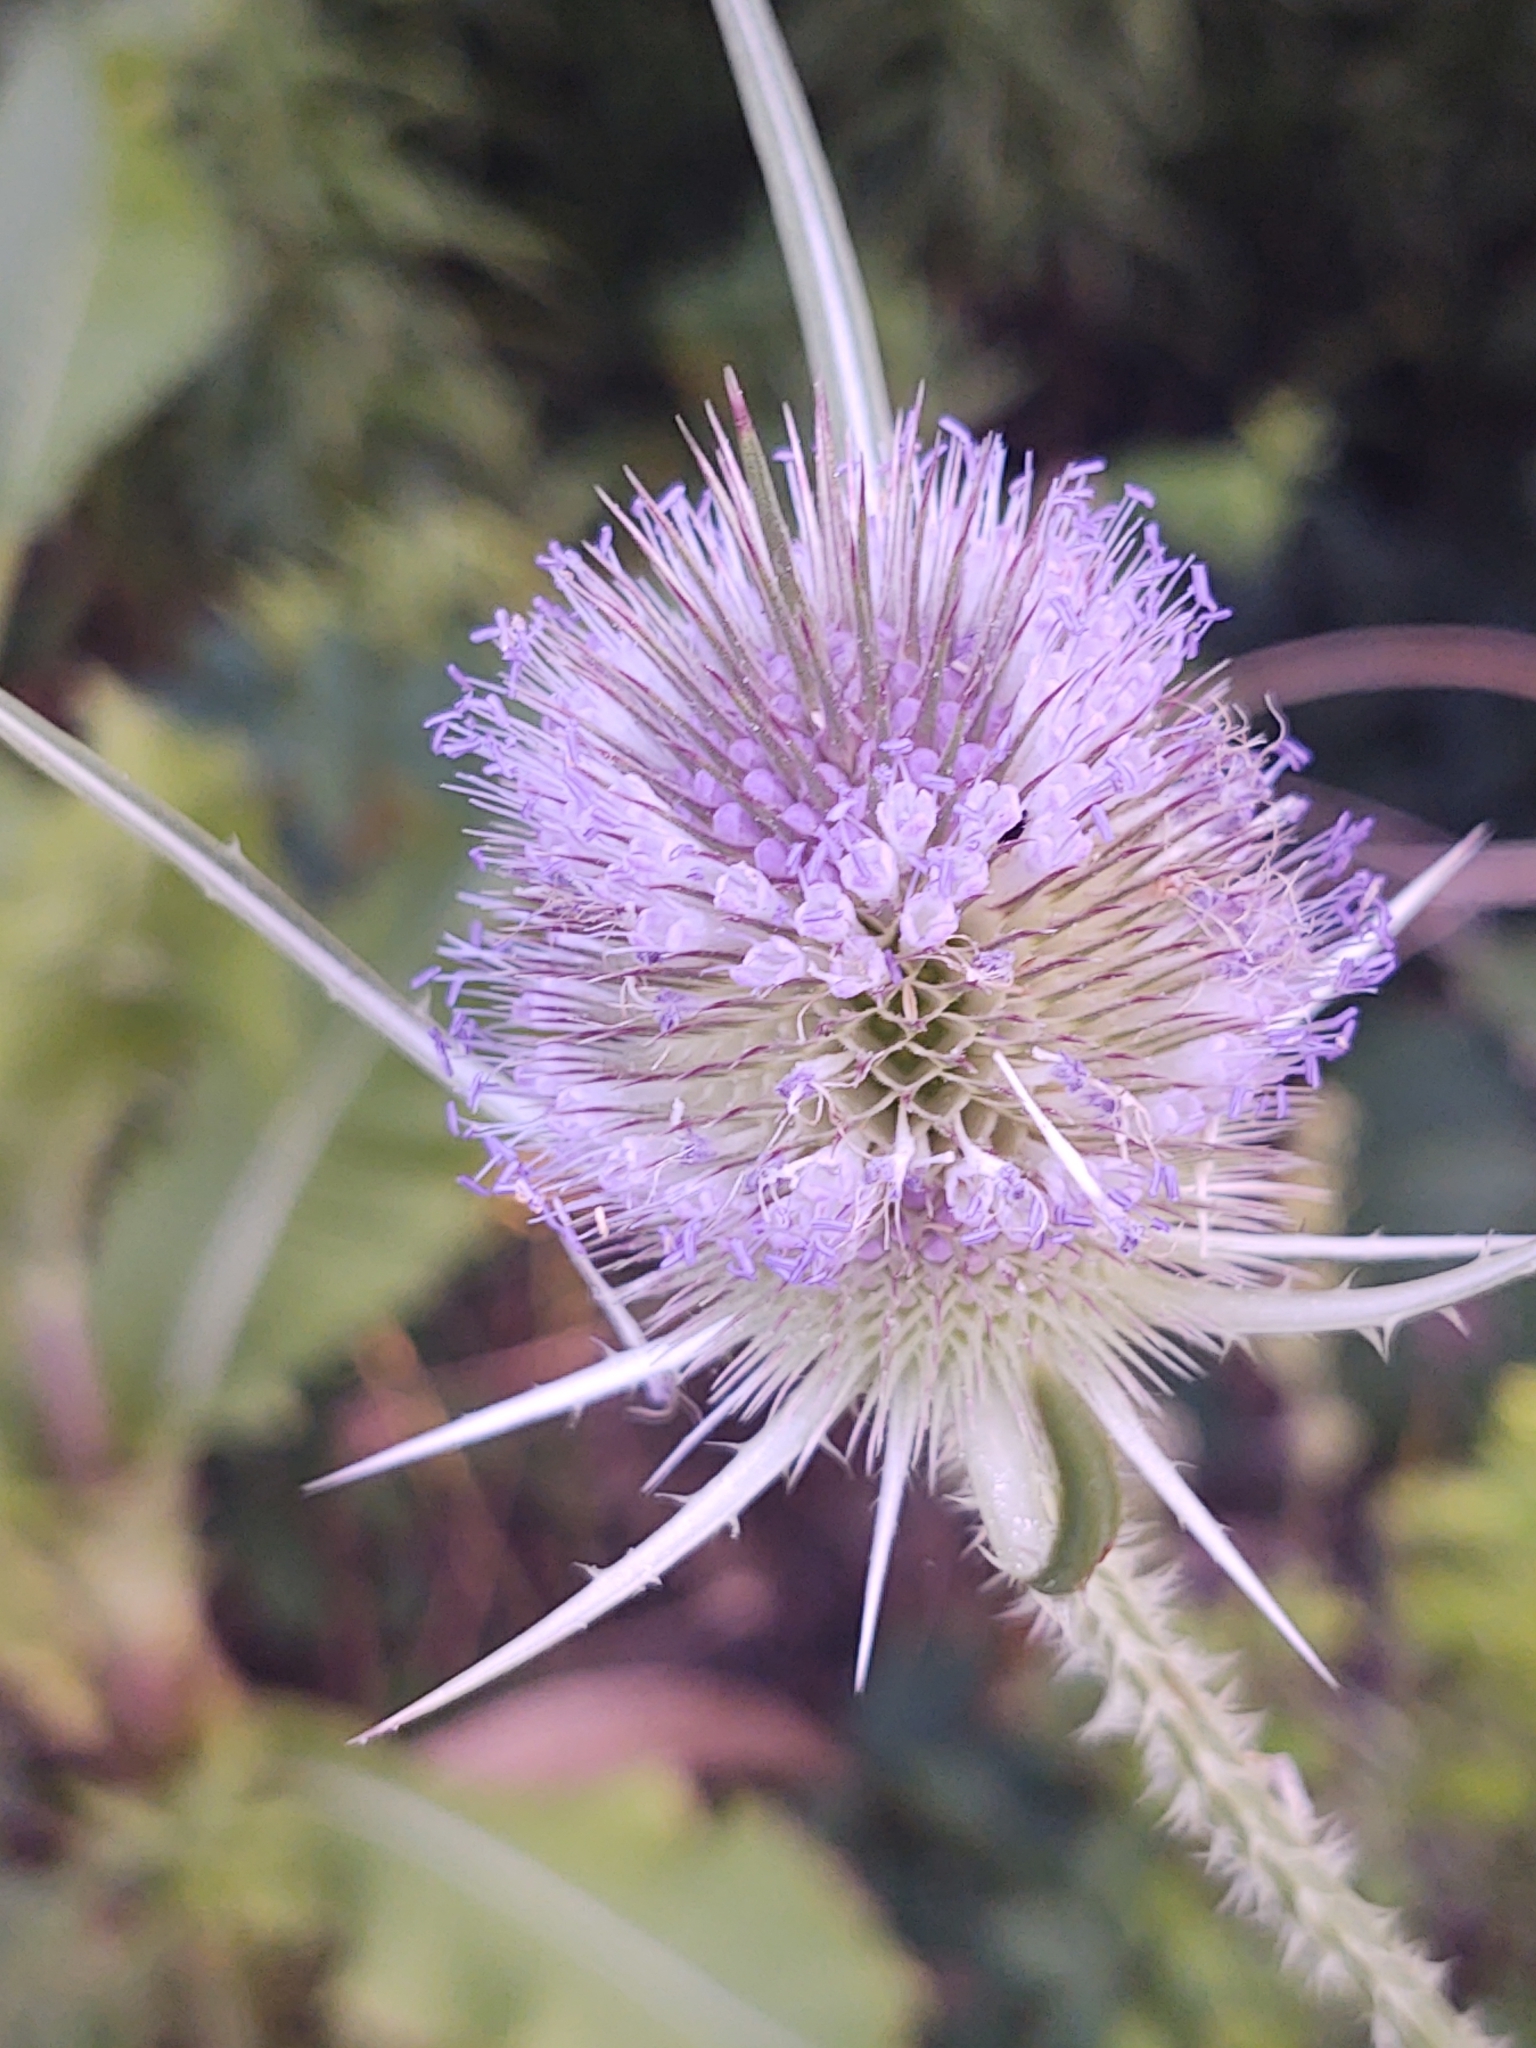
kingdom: Plantae
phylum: Tracheophyta
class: Magnoliopsida
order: Dipsacales
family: Caprifoliaceae
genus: Dipsacus
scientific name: Dipsacus fullonum
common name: Teasel
